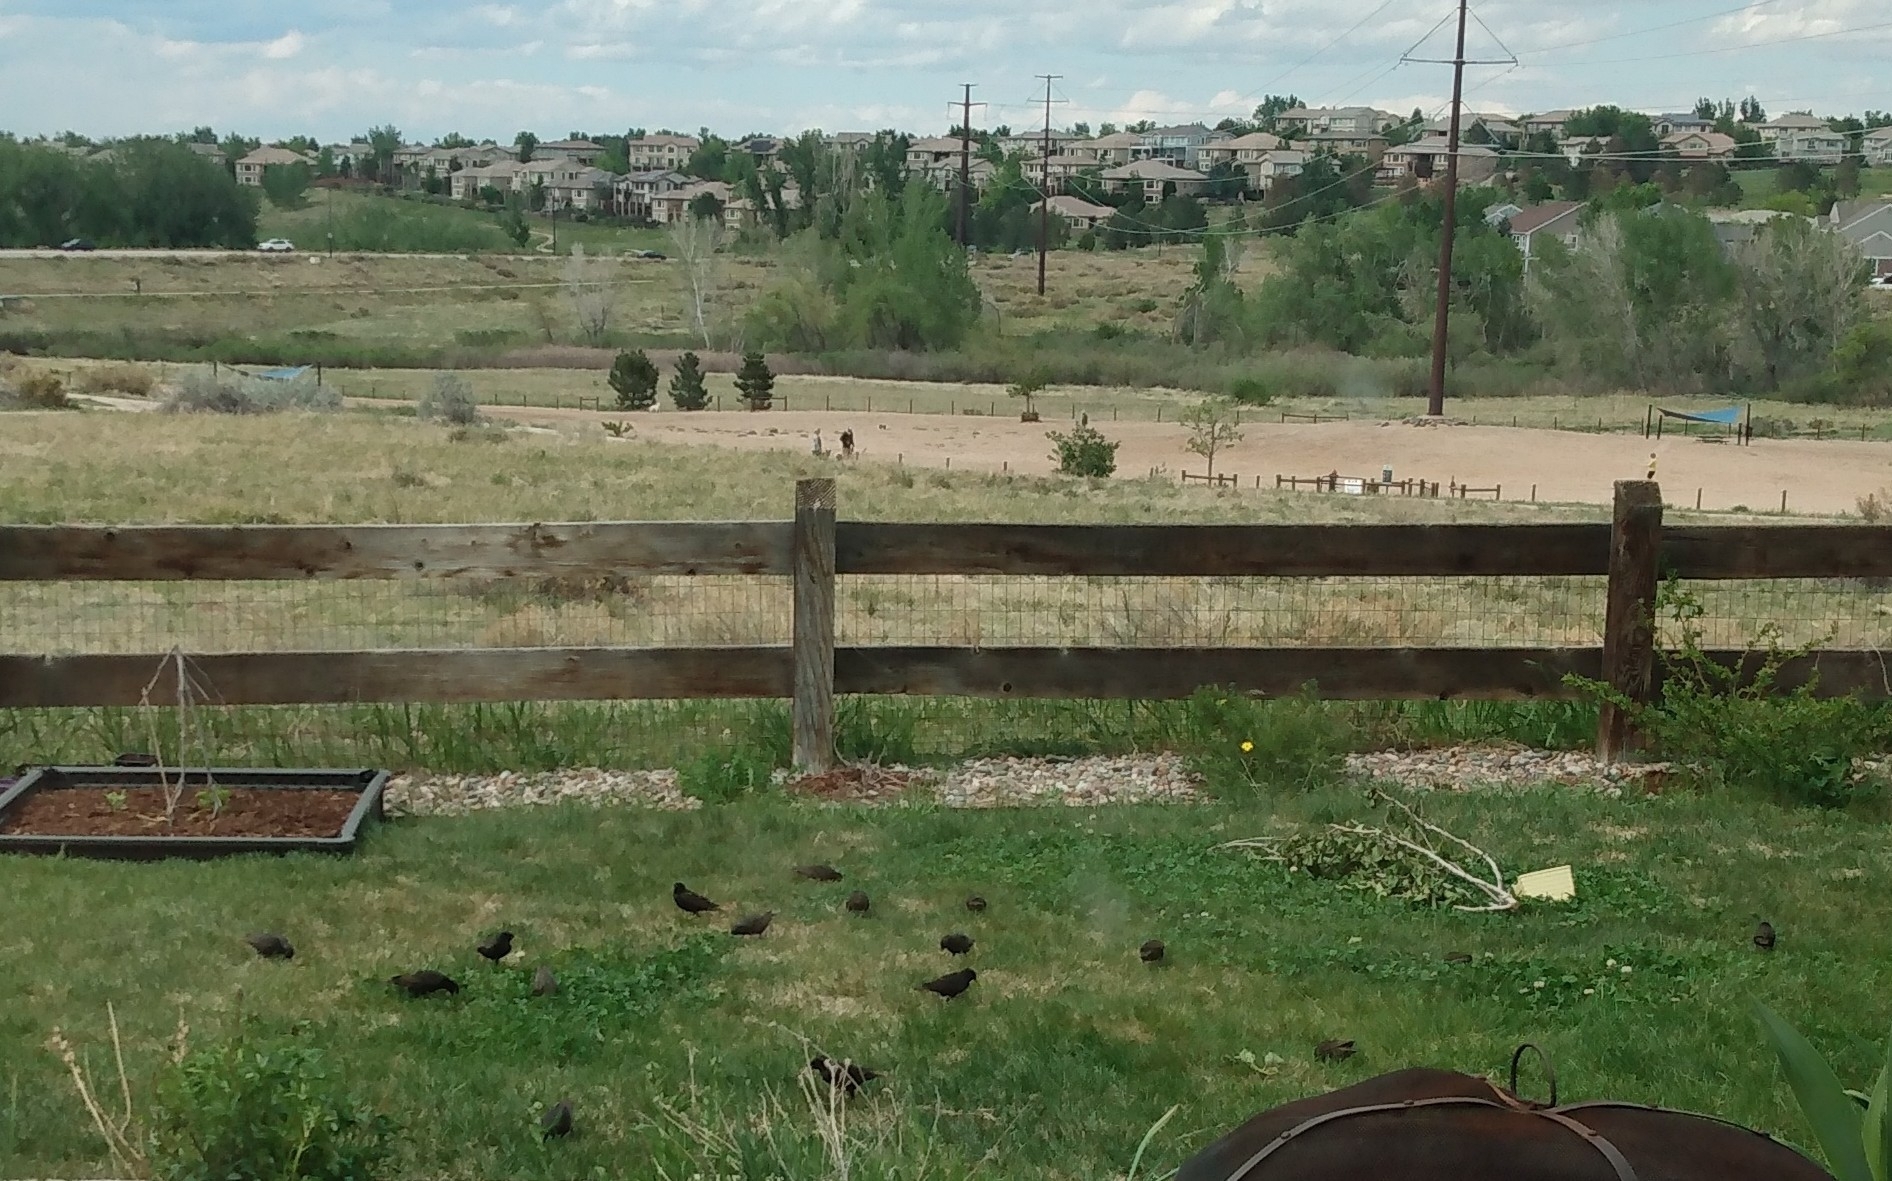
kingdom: Animalia
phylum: Chordata
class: Aves
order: Passeriformes
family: Sturnidae
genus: Sturnus
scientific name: Sturnus vulgaris
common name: Common starling
